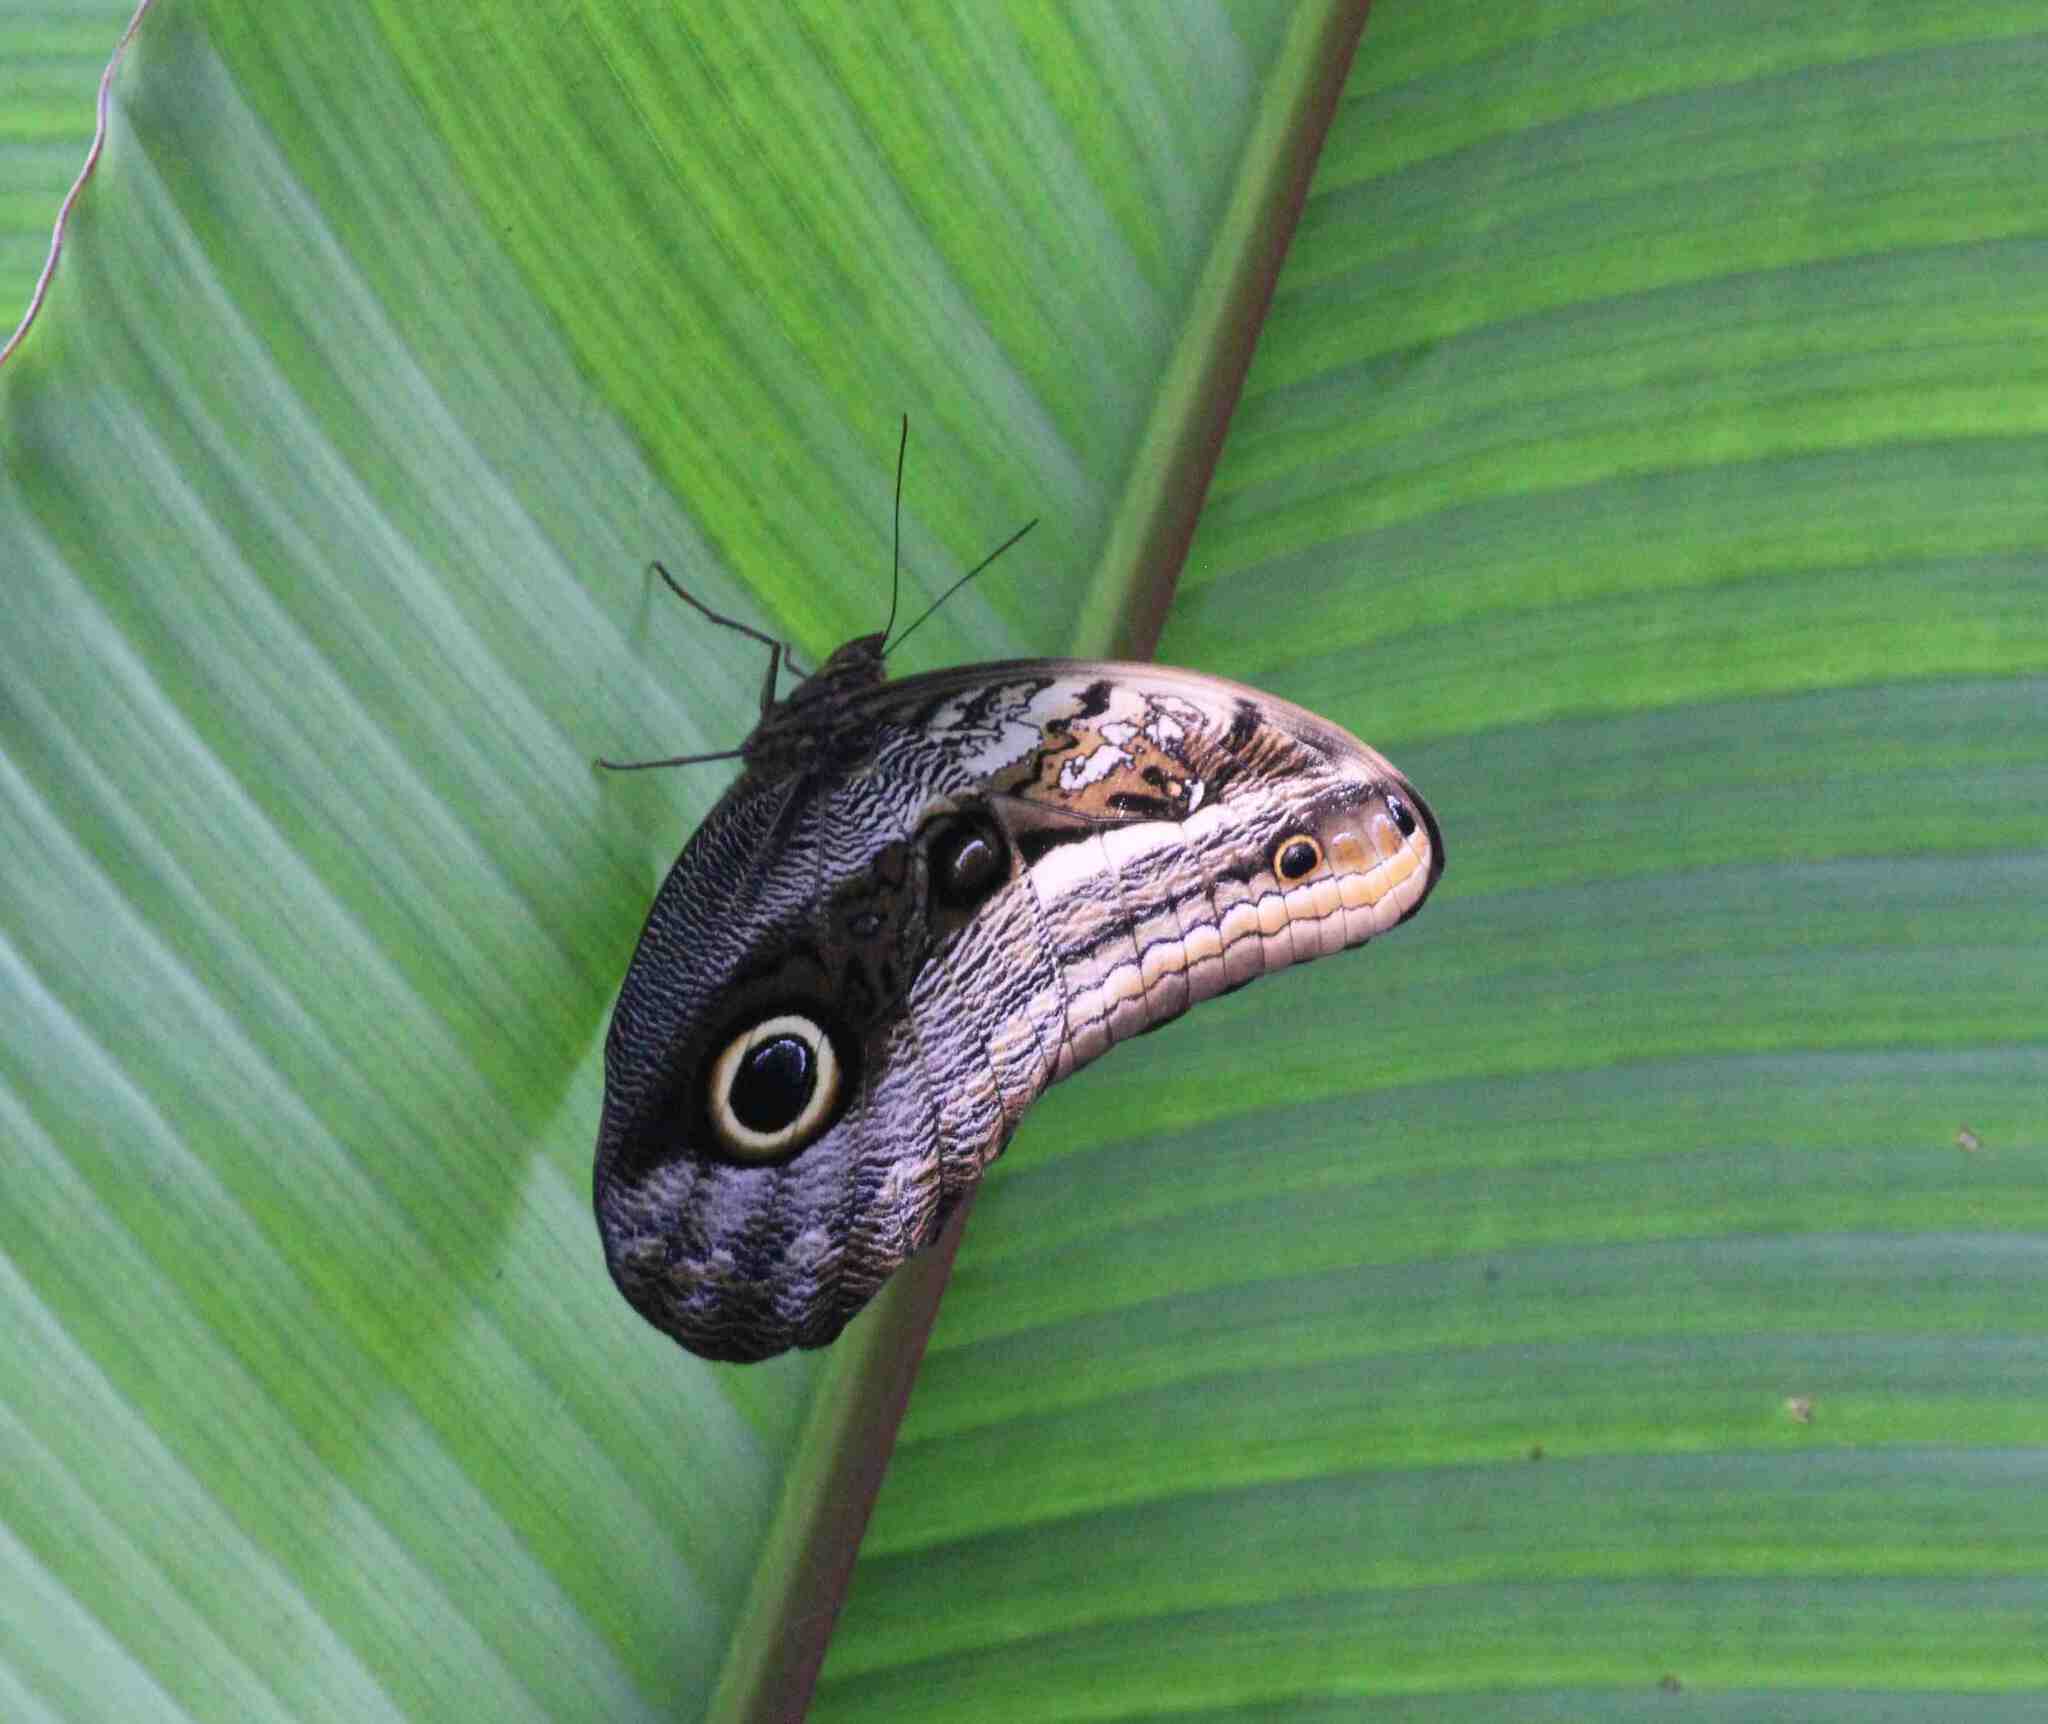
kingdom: Animalia
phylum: Arthropoda
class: Insecta
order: Lepidoptera
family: Nymphalidae
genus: Caligo
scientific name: Caligo oileus
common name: Oileus owl-butterfly
